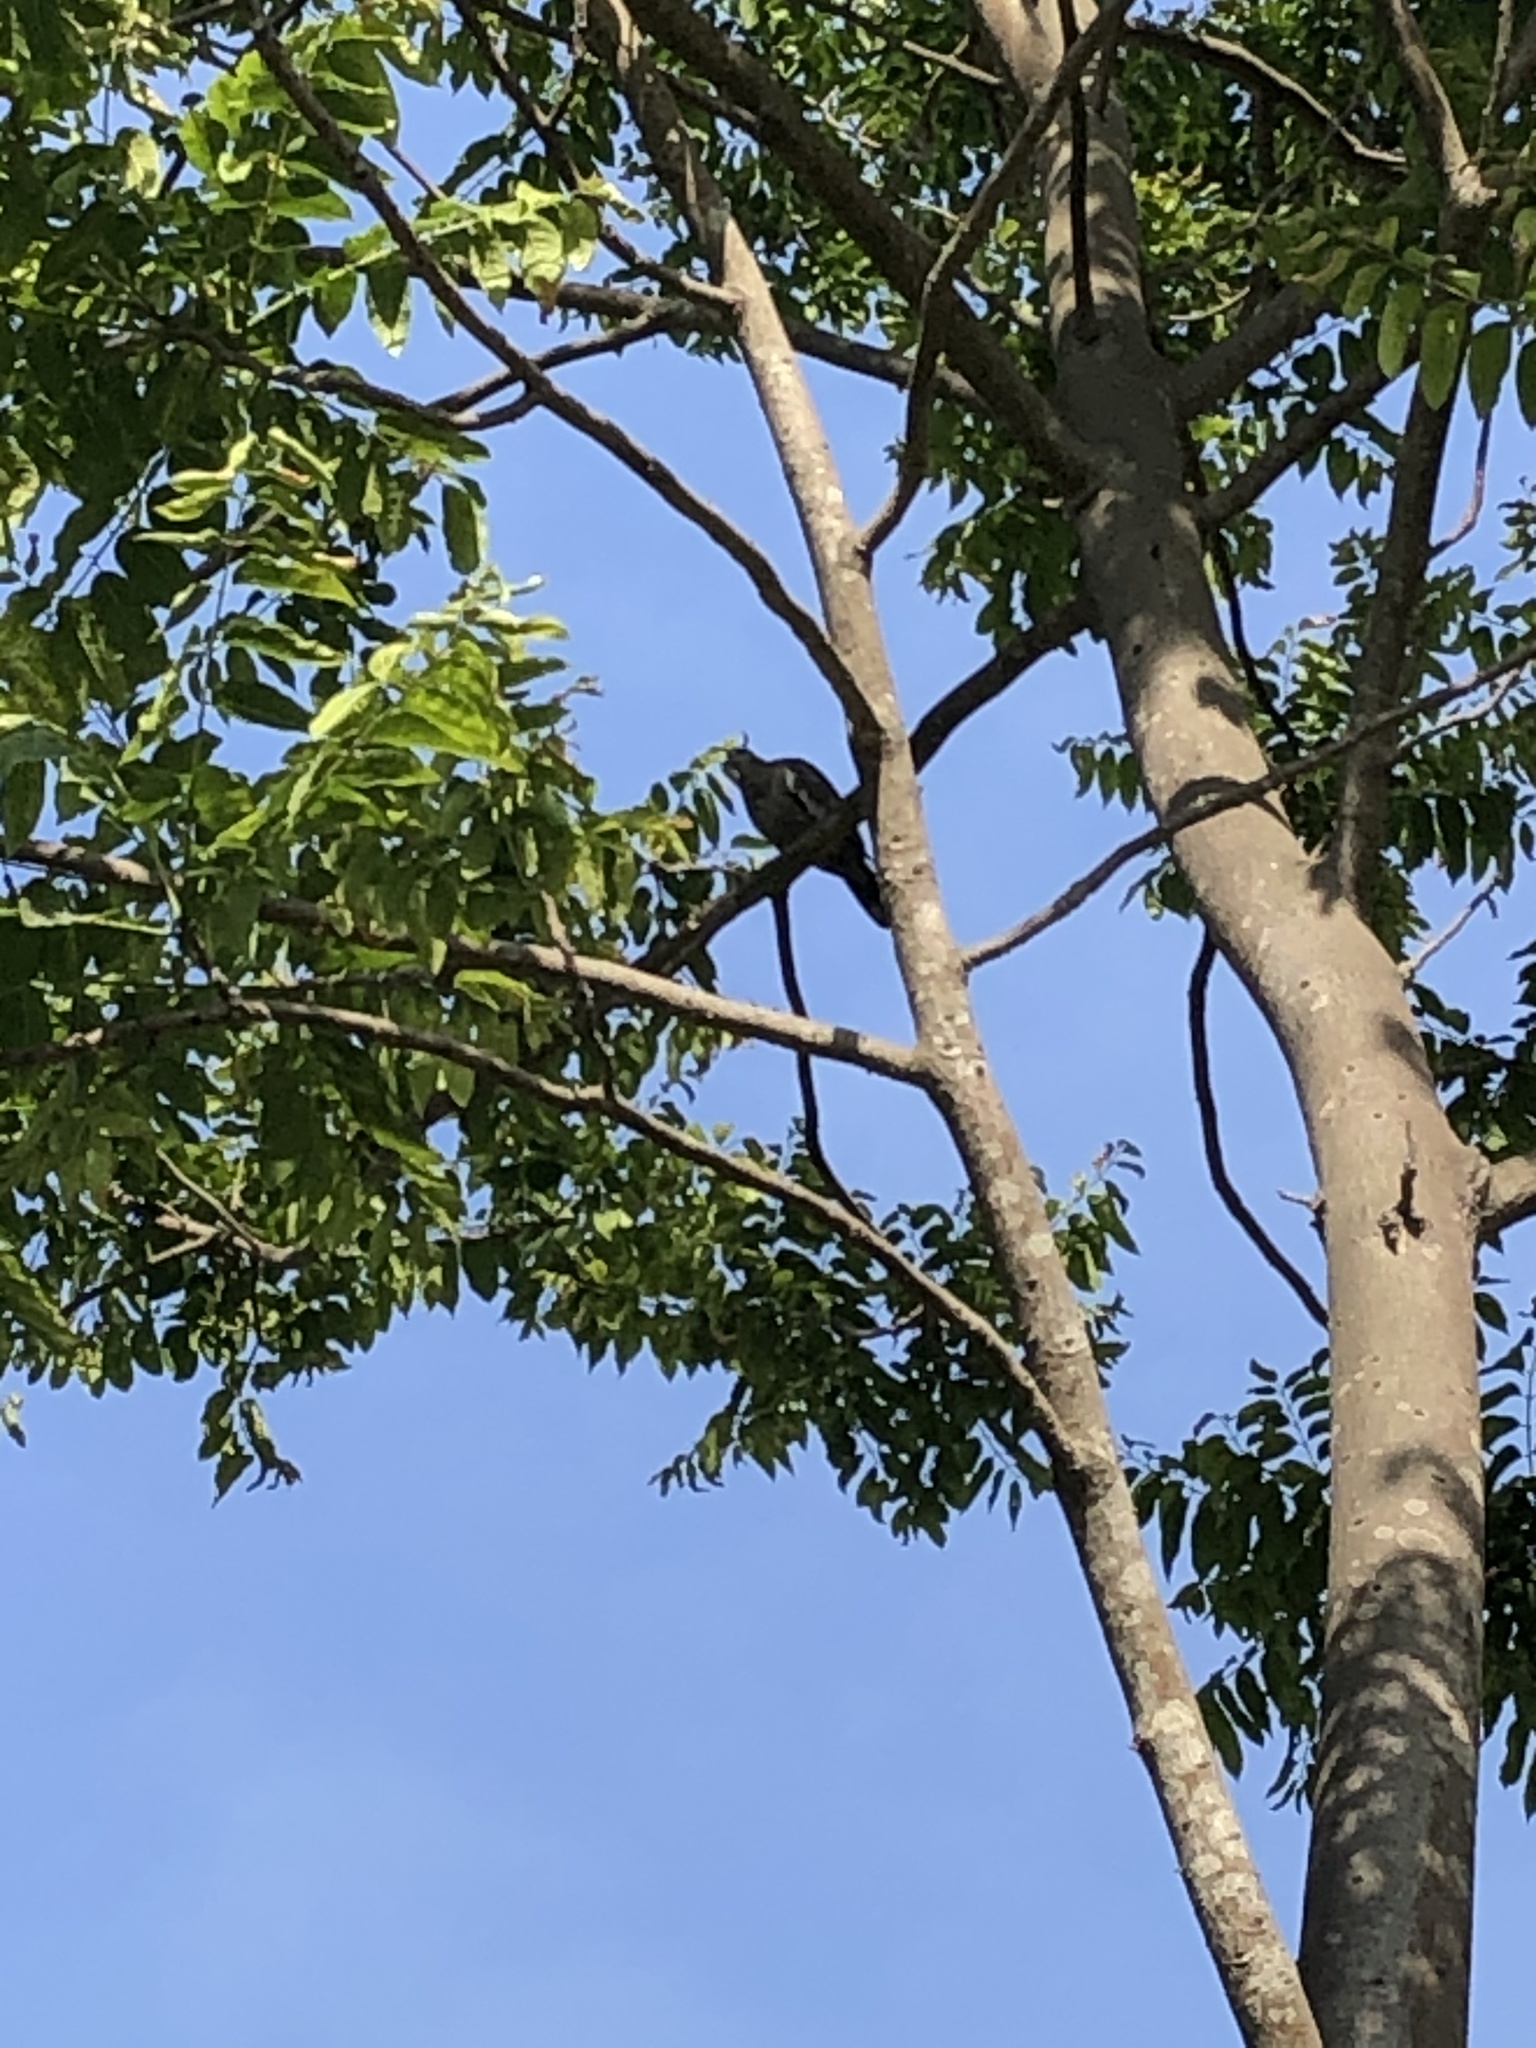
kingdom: Animalia
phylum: Chordata
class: Aves
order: Columbiformes
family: Columbidae
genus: Zenaida
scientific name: Zenaida meloda
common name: West peruvian dove
